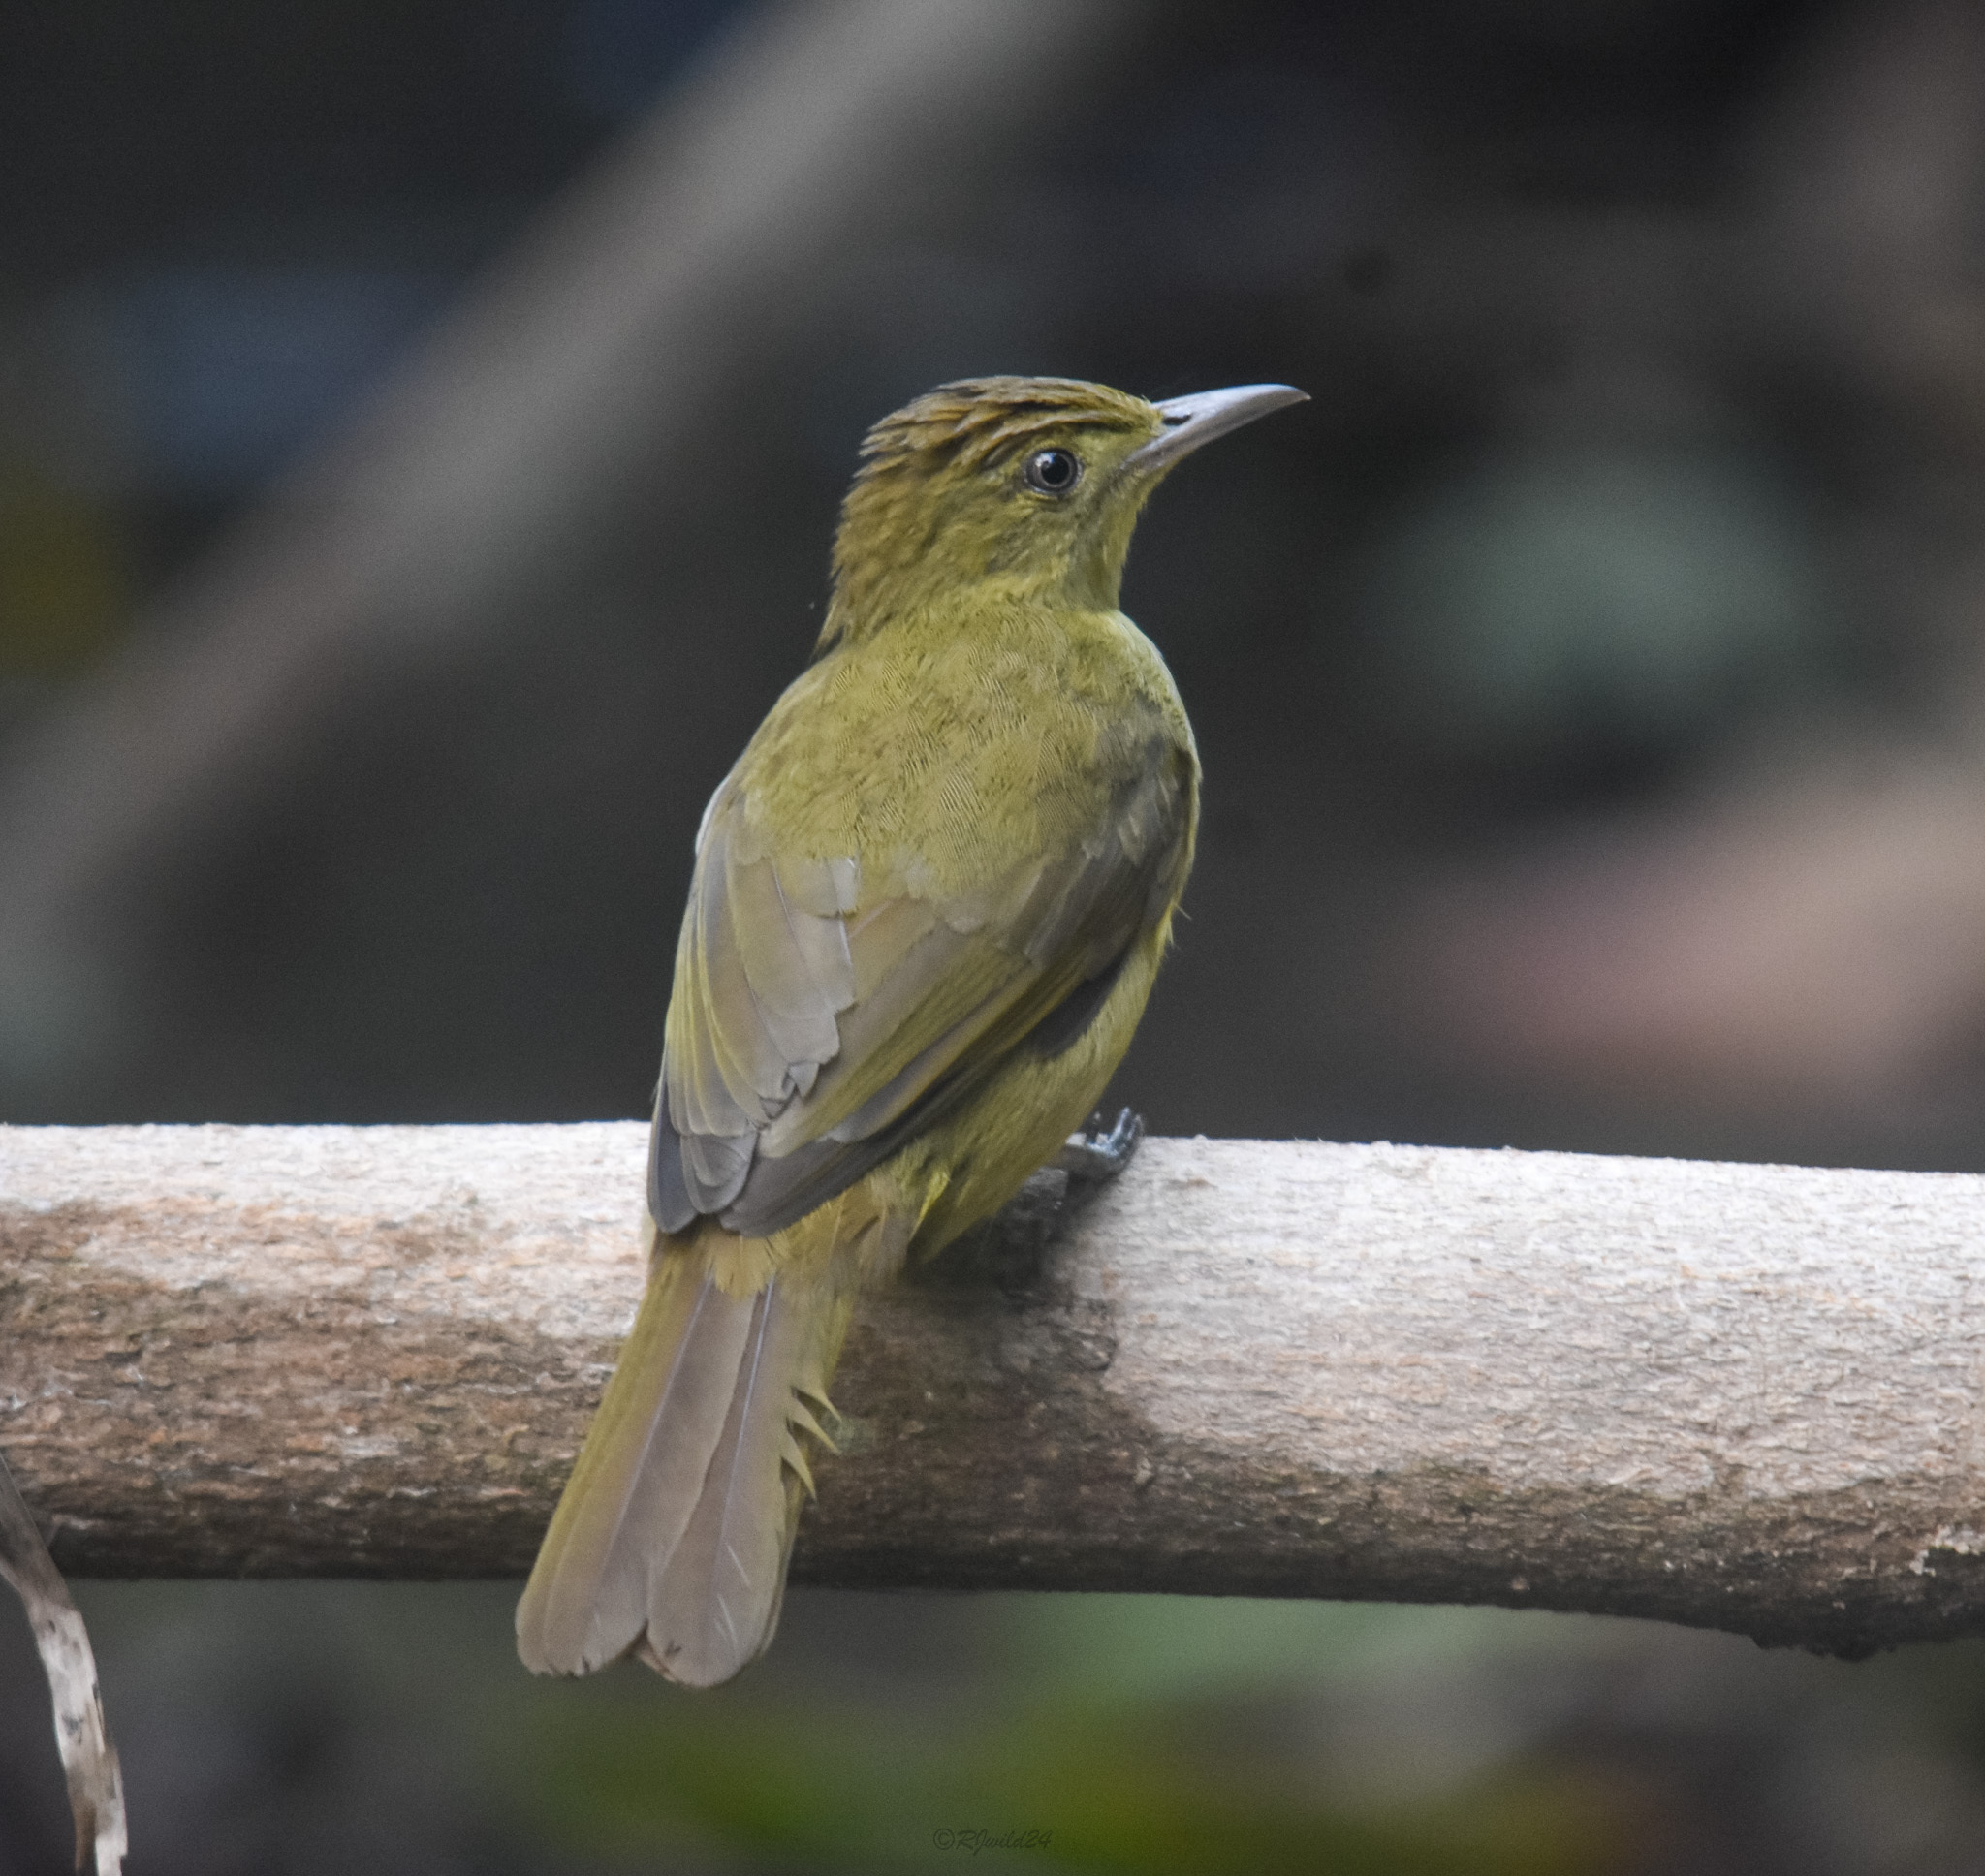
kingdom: Animalia
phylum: Chordata
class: Aves
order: Passeriformes
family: Pycnonotidae
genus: Iole
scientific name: Iole virescens
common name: Olive bulbul
